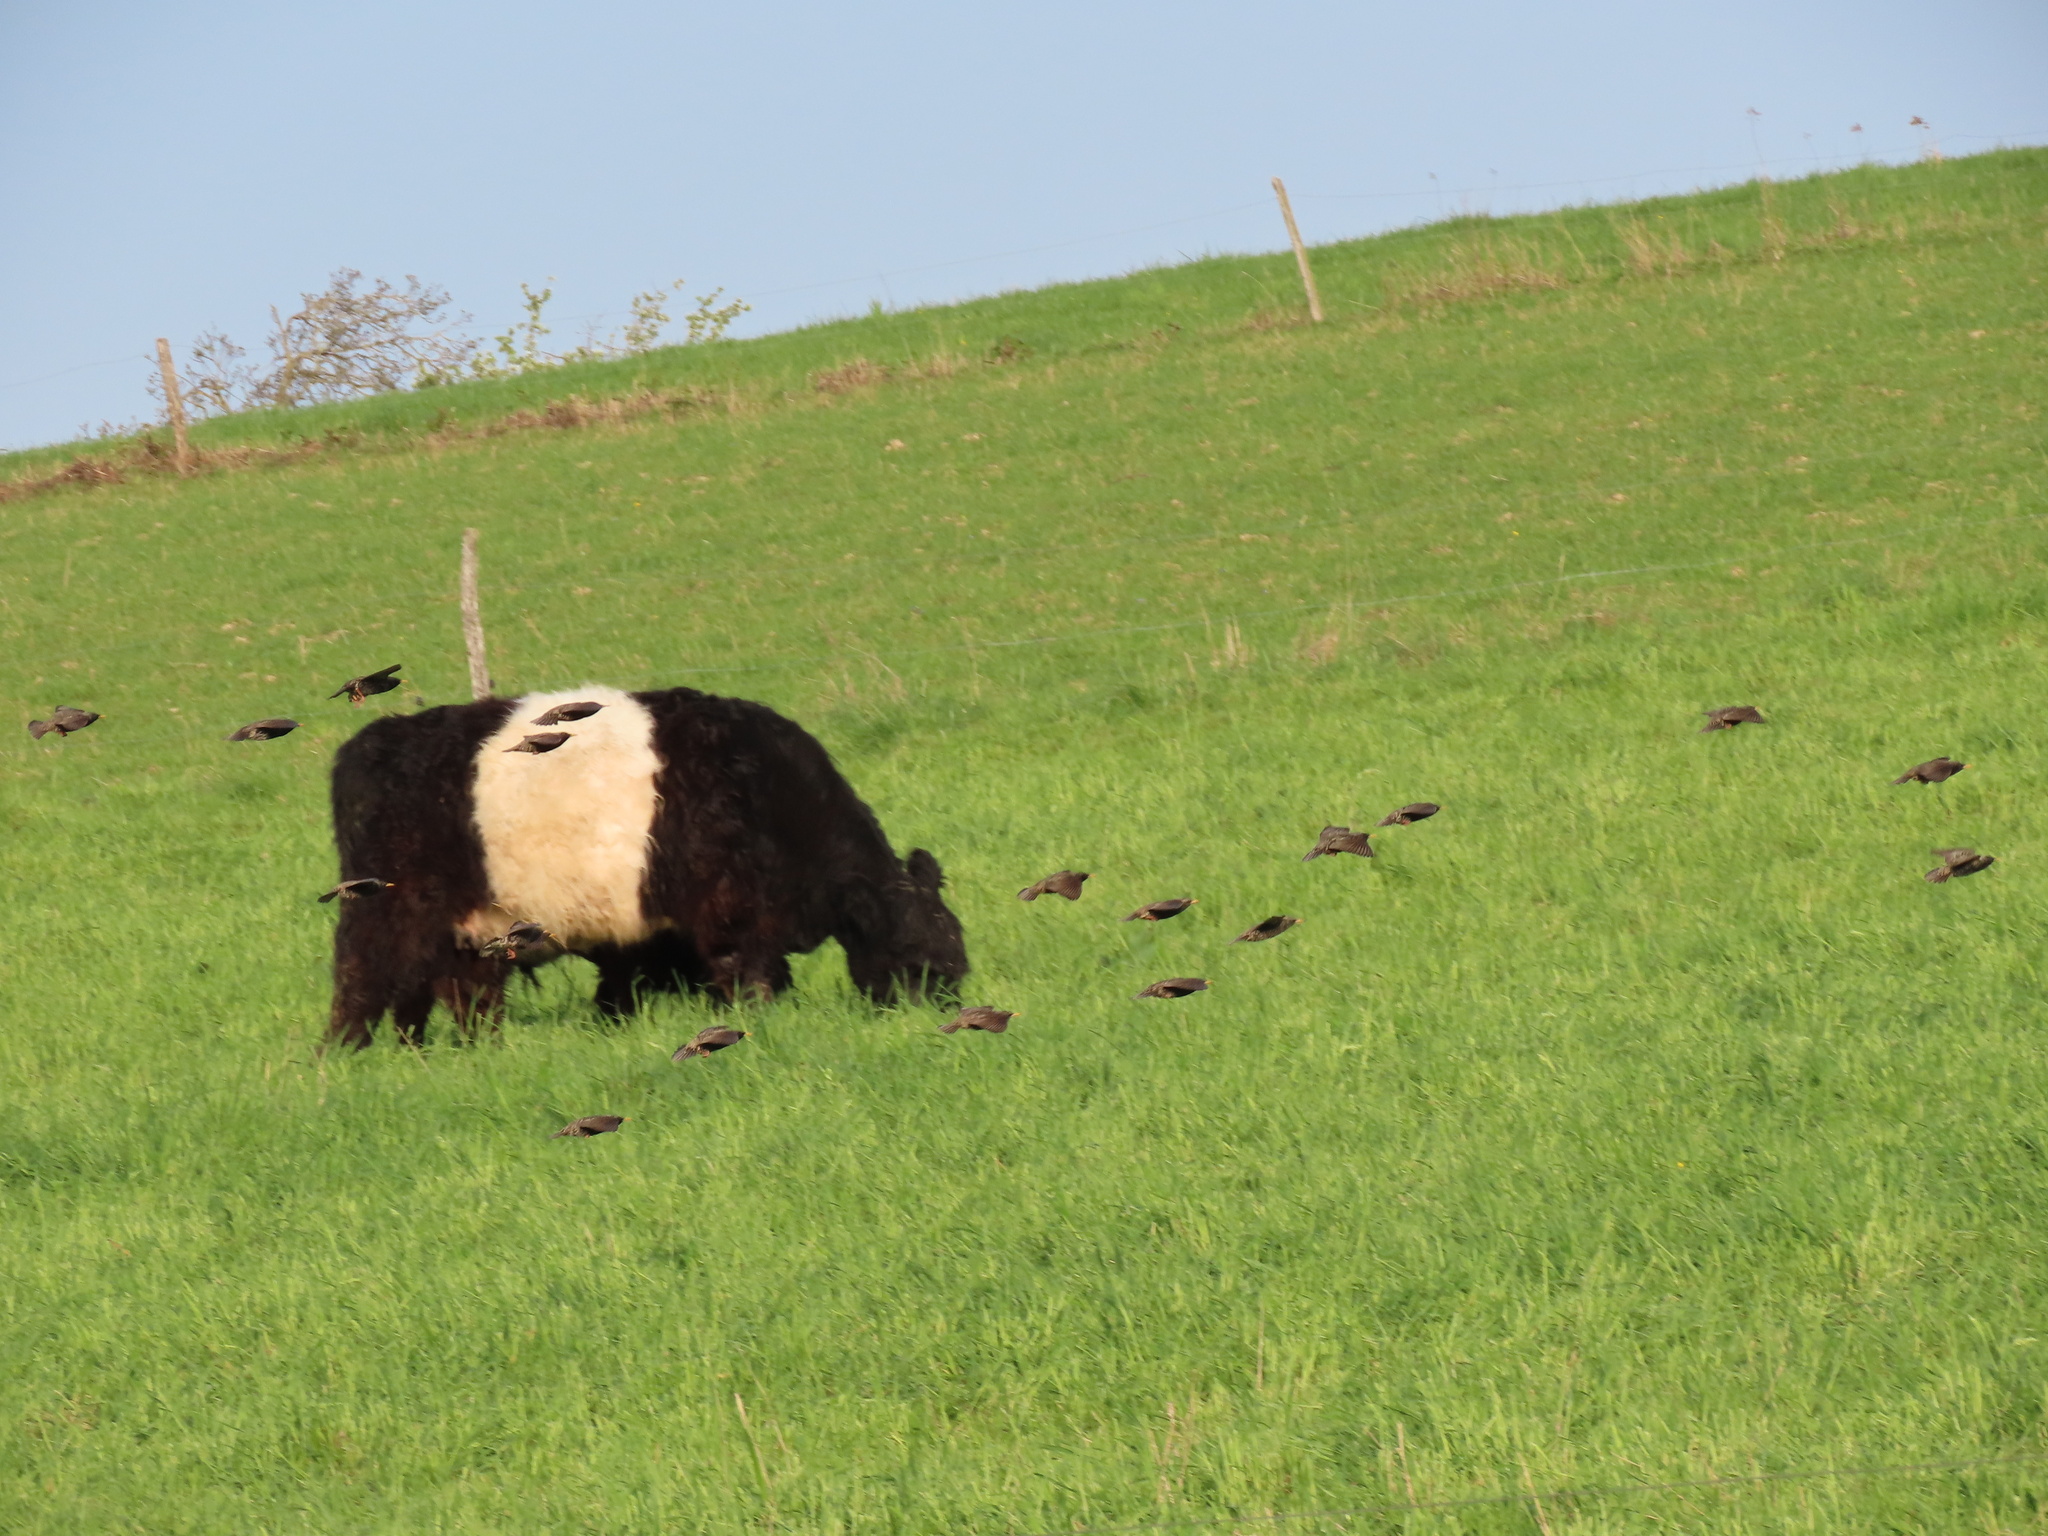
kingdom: Animalia
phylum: Chordata
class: Aves
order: Passeriformes
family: Sturnidae
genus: Sturnus
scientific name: Sturnus vulgaris
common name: Common starling
